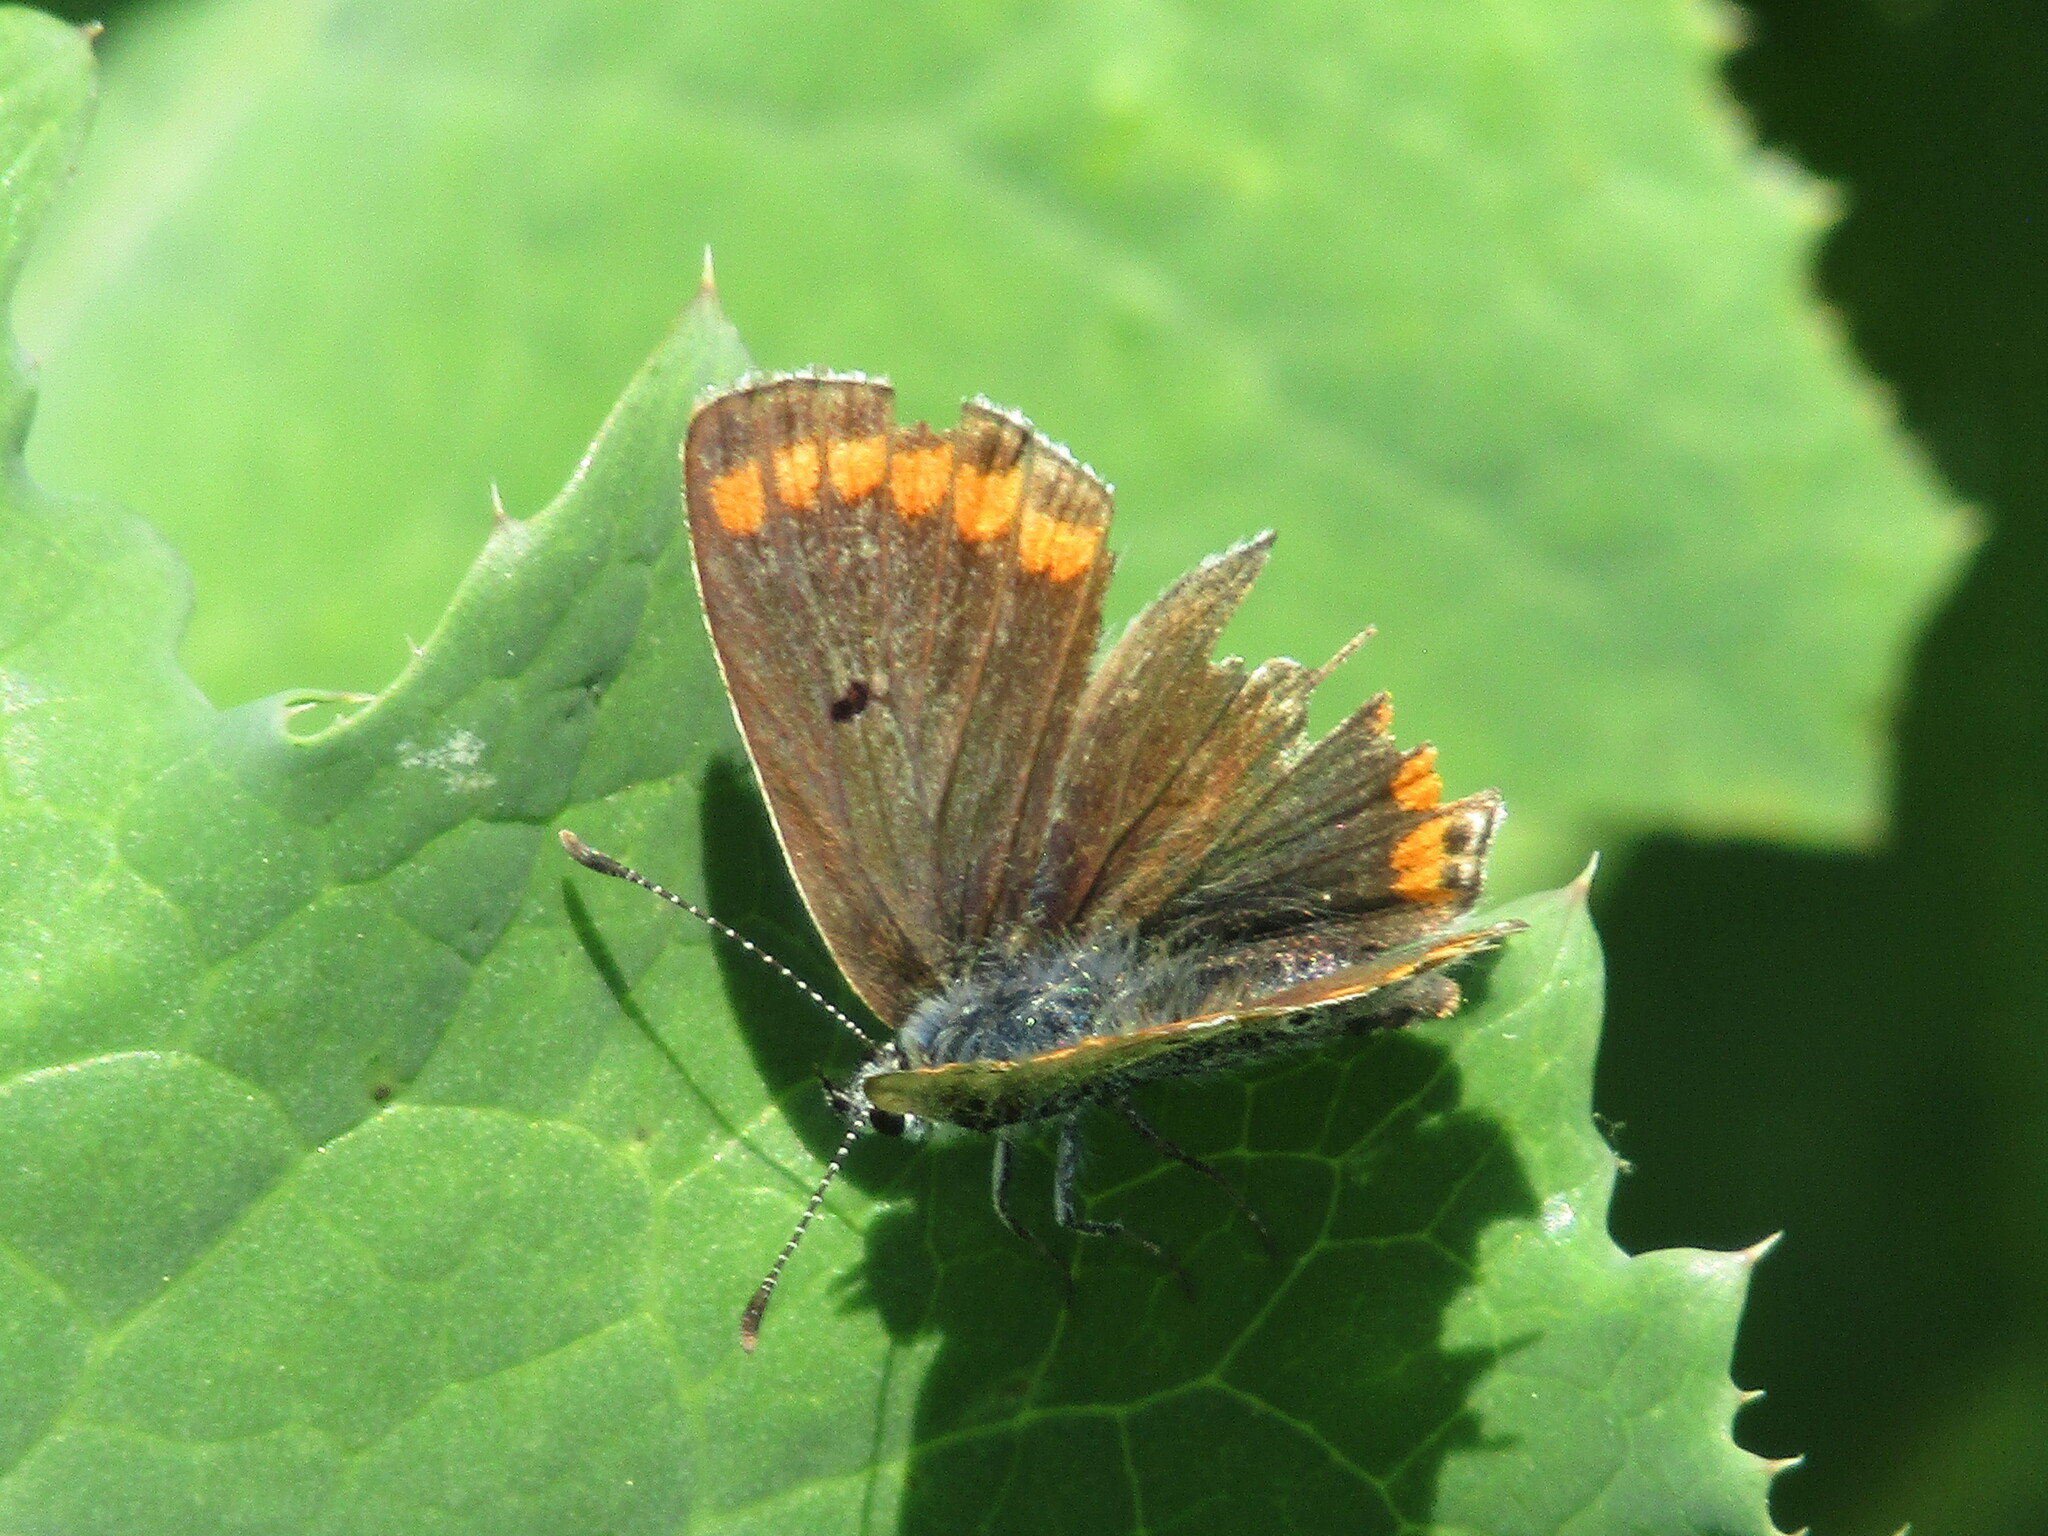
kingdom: Animalia
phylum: Arthropoda
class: Insecta
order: Lepidoptera
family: Lycaenidae
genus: Aricia
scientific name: Aricia agestis
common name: Brown argus
